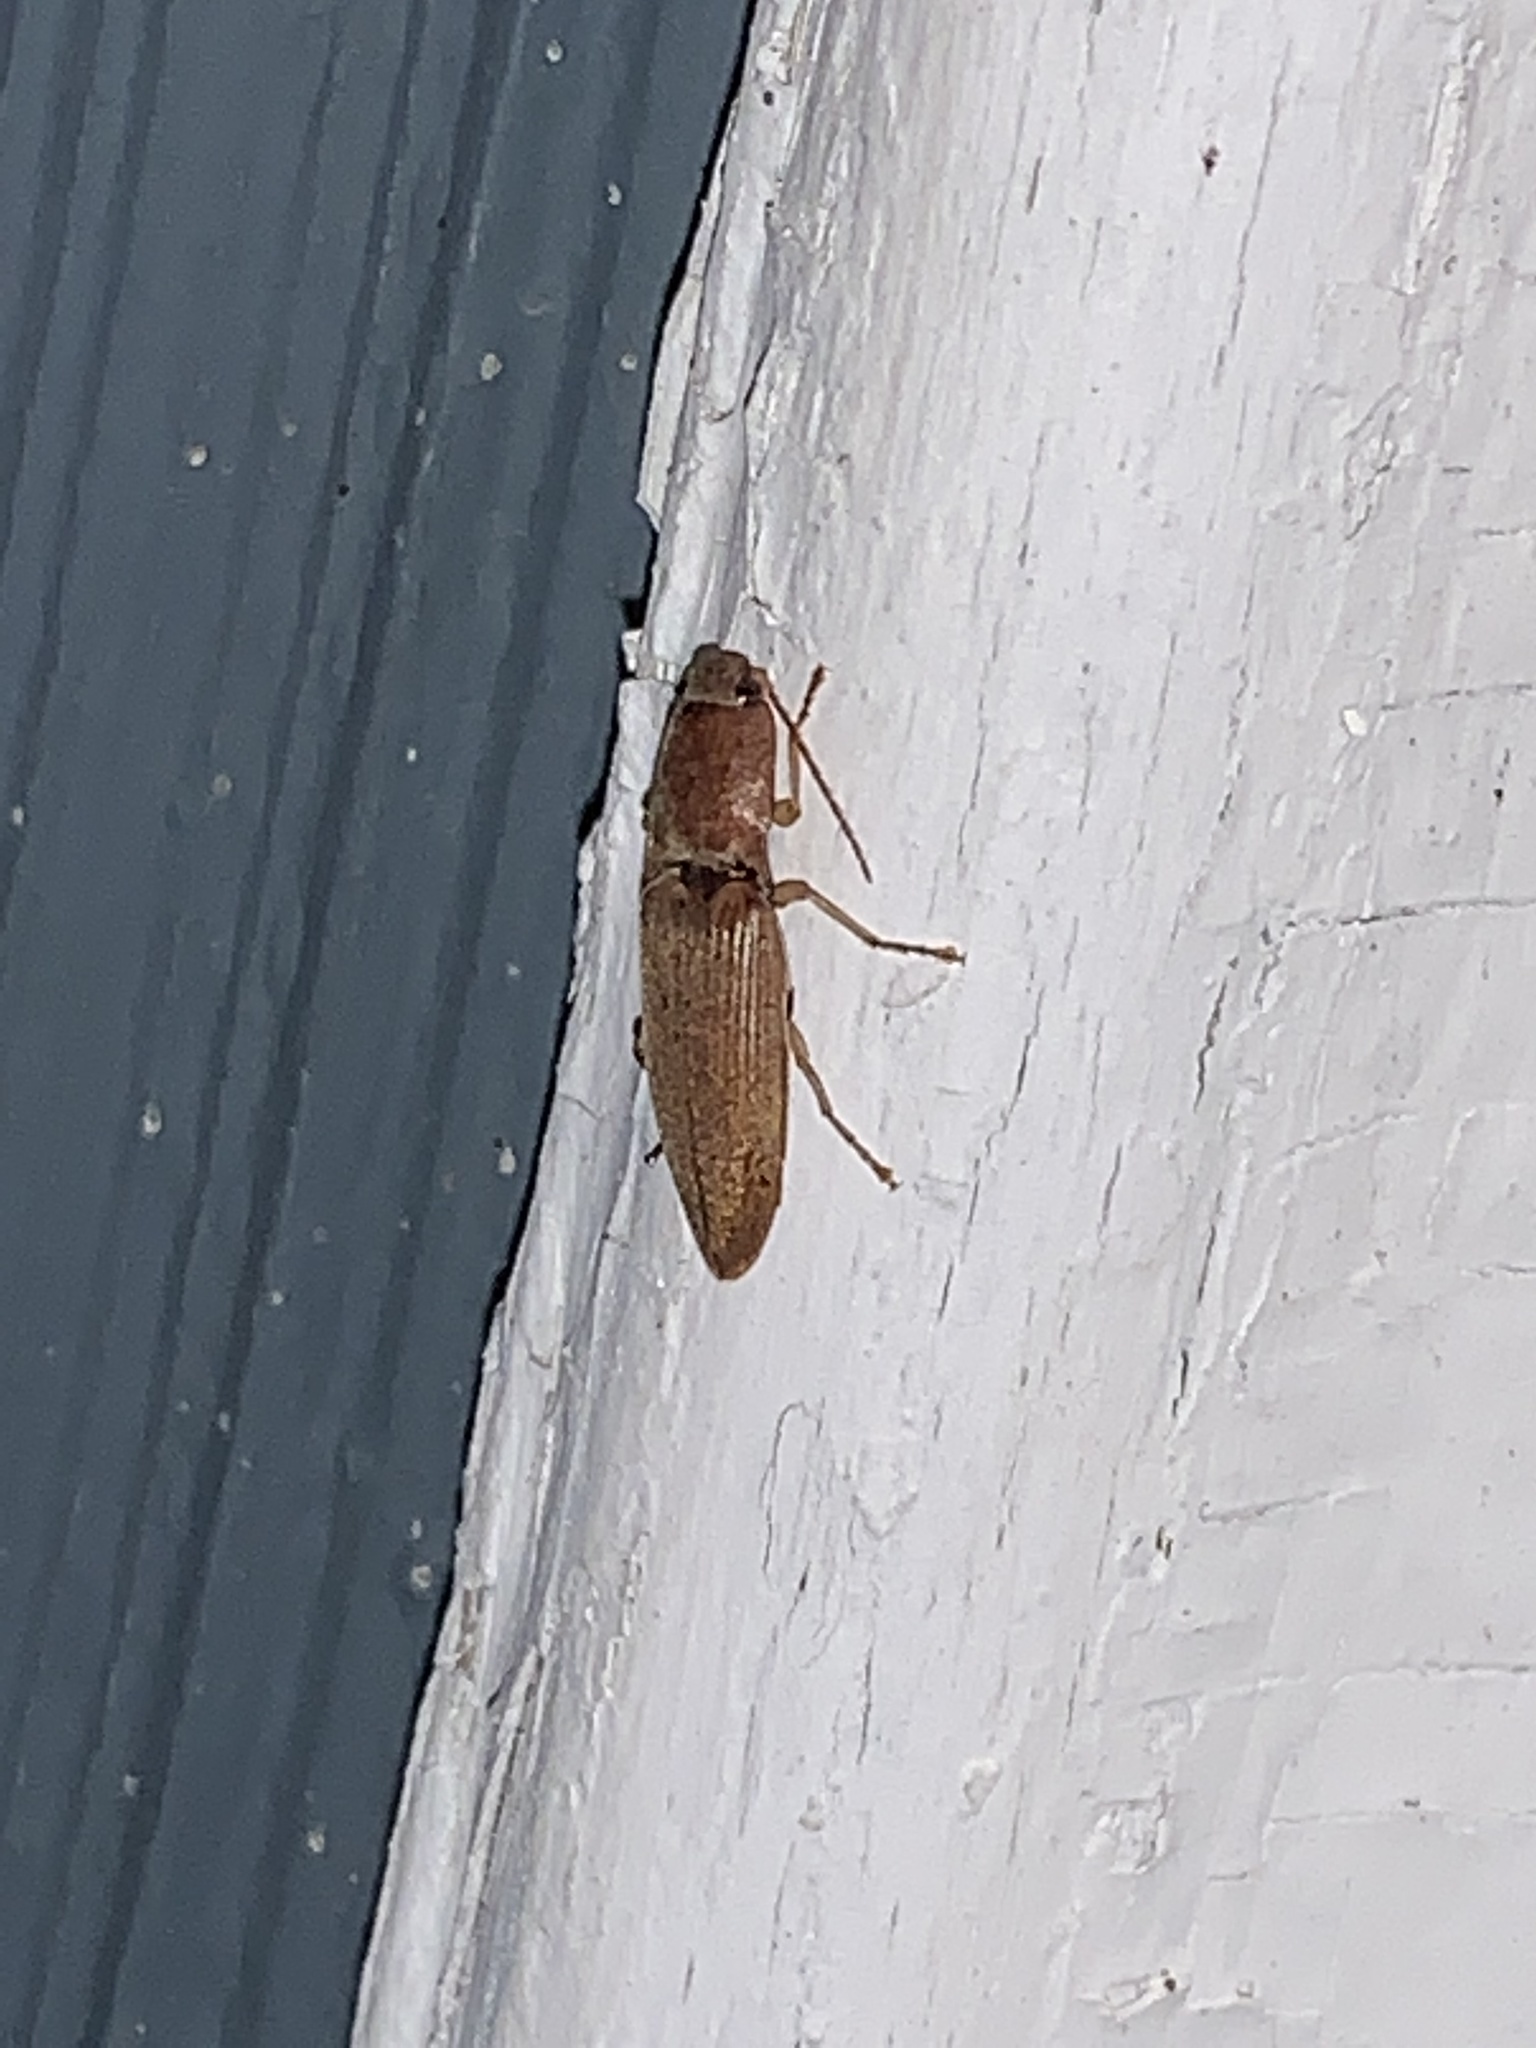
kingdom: Animalia
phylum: Arthropoda
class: Insecta
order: Coleoptera
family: Elateridae
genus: Monocrepidius
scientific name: Monocrepidius lividus
